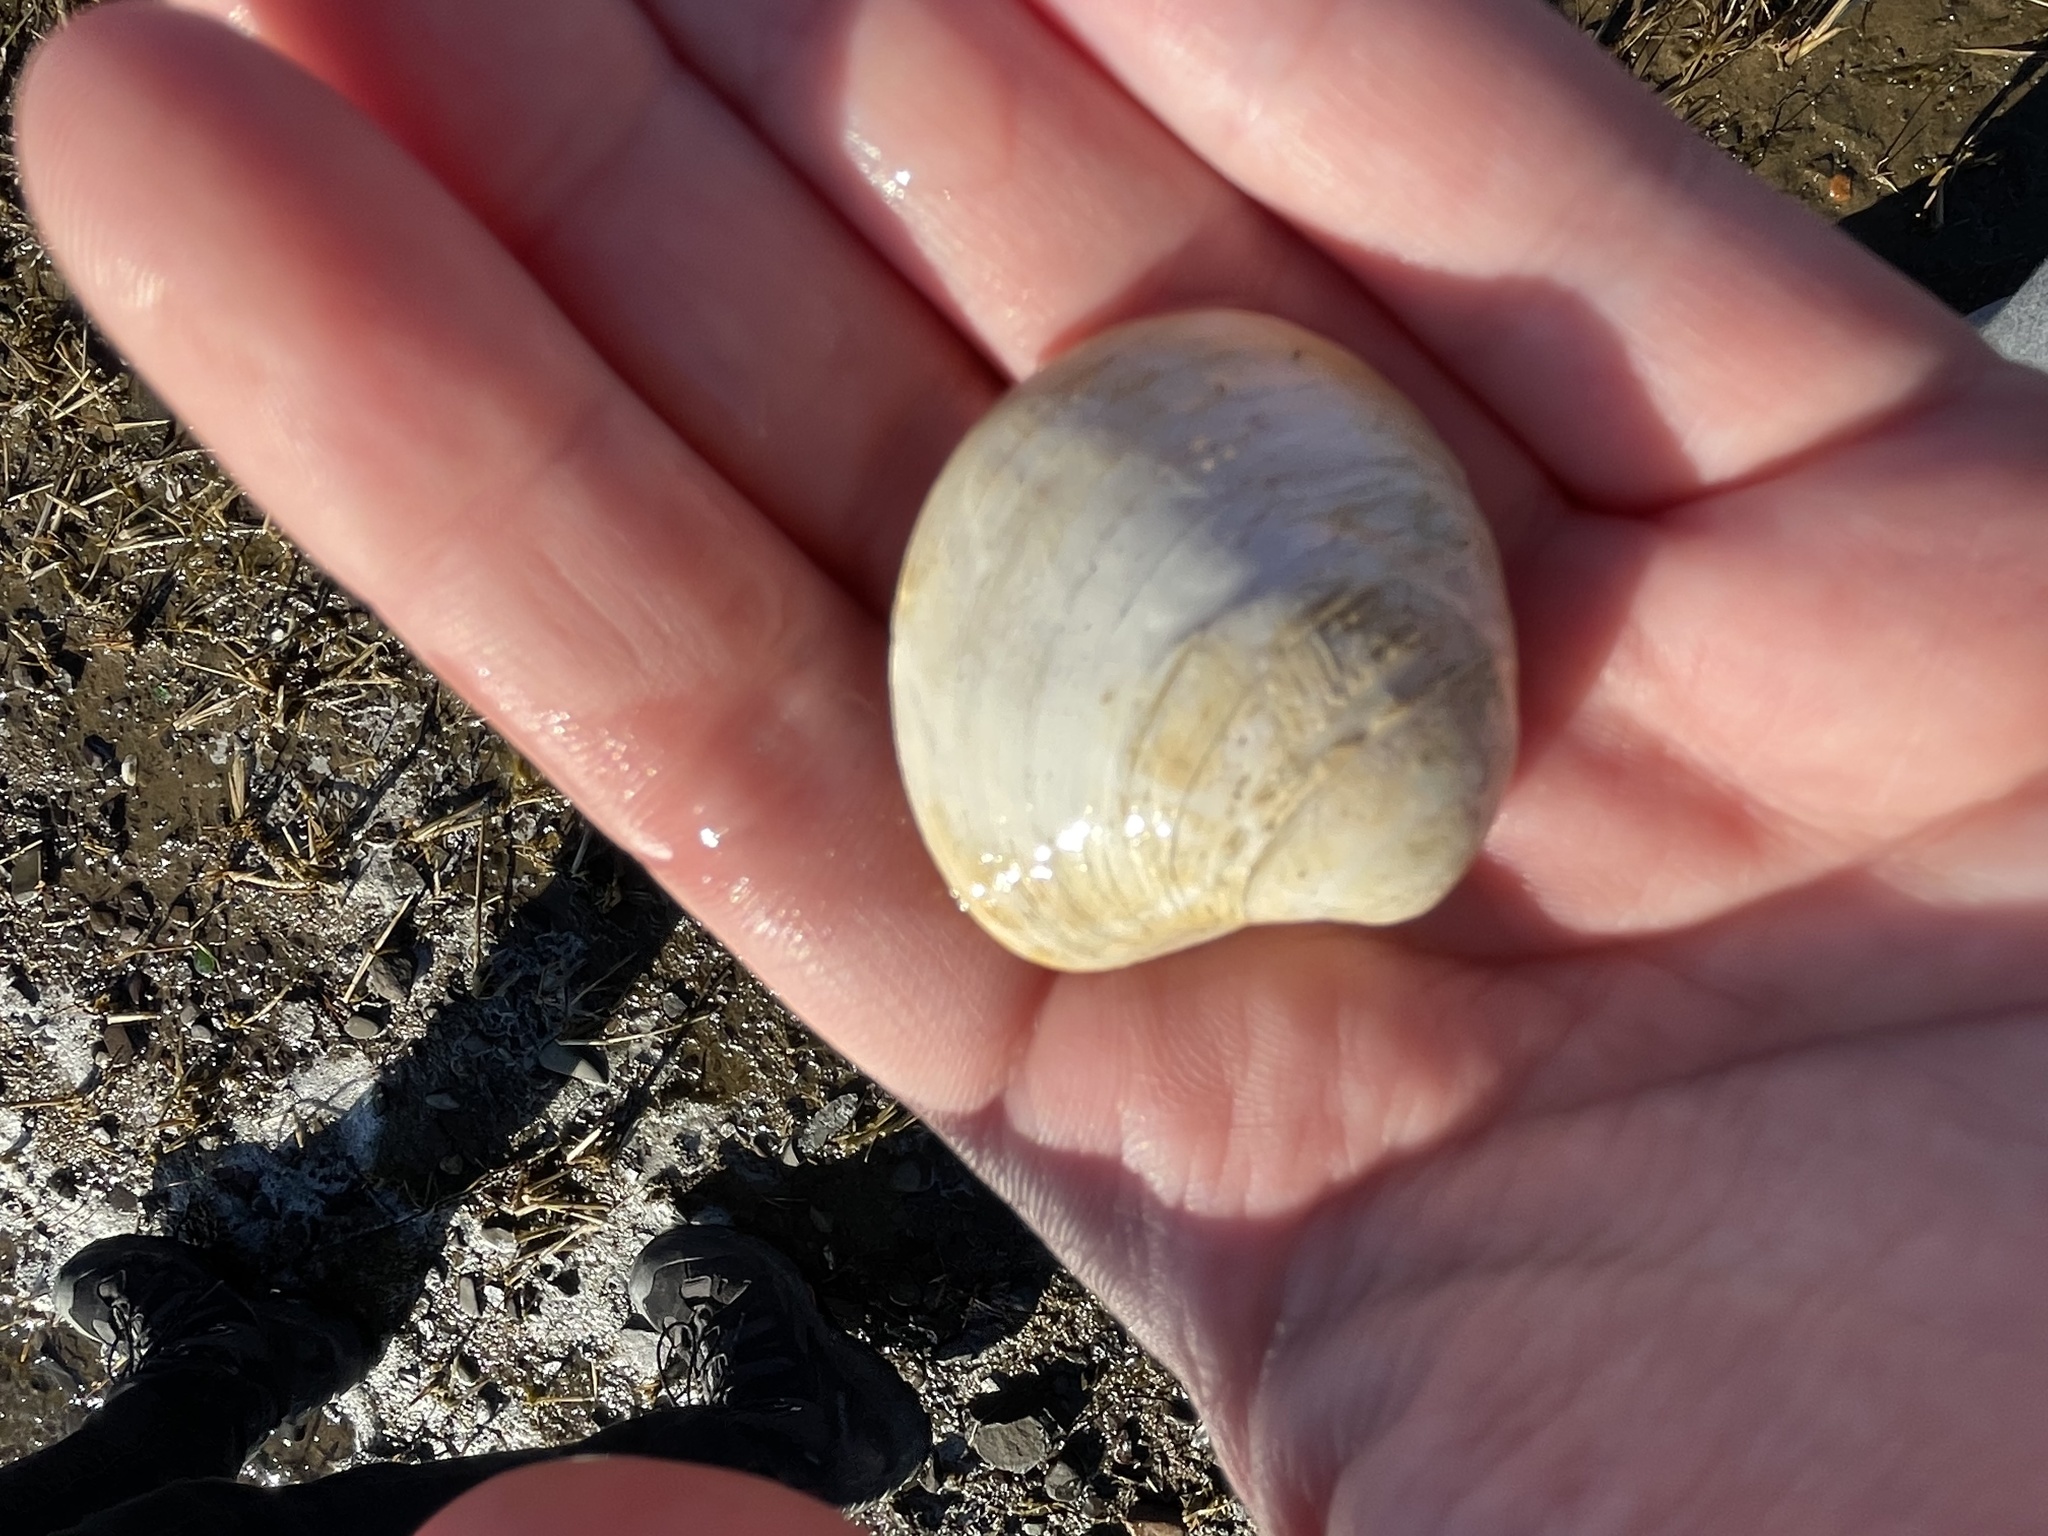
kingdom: Animalia
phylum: Mollusca
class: Bivalvia
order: Venerida
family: Veneridae
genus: Agriopoma
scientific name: Agriopoma morrhuanum
